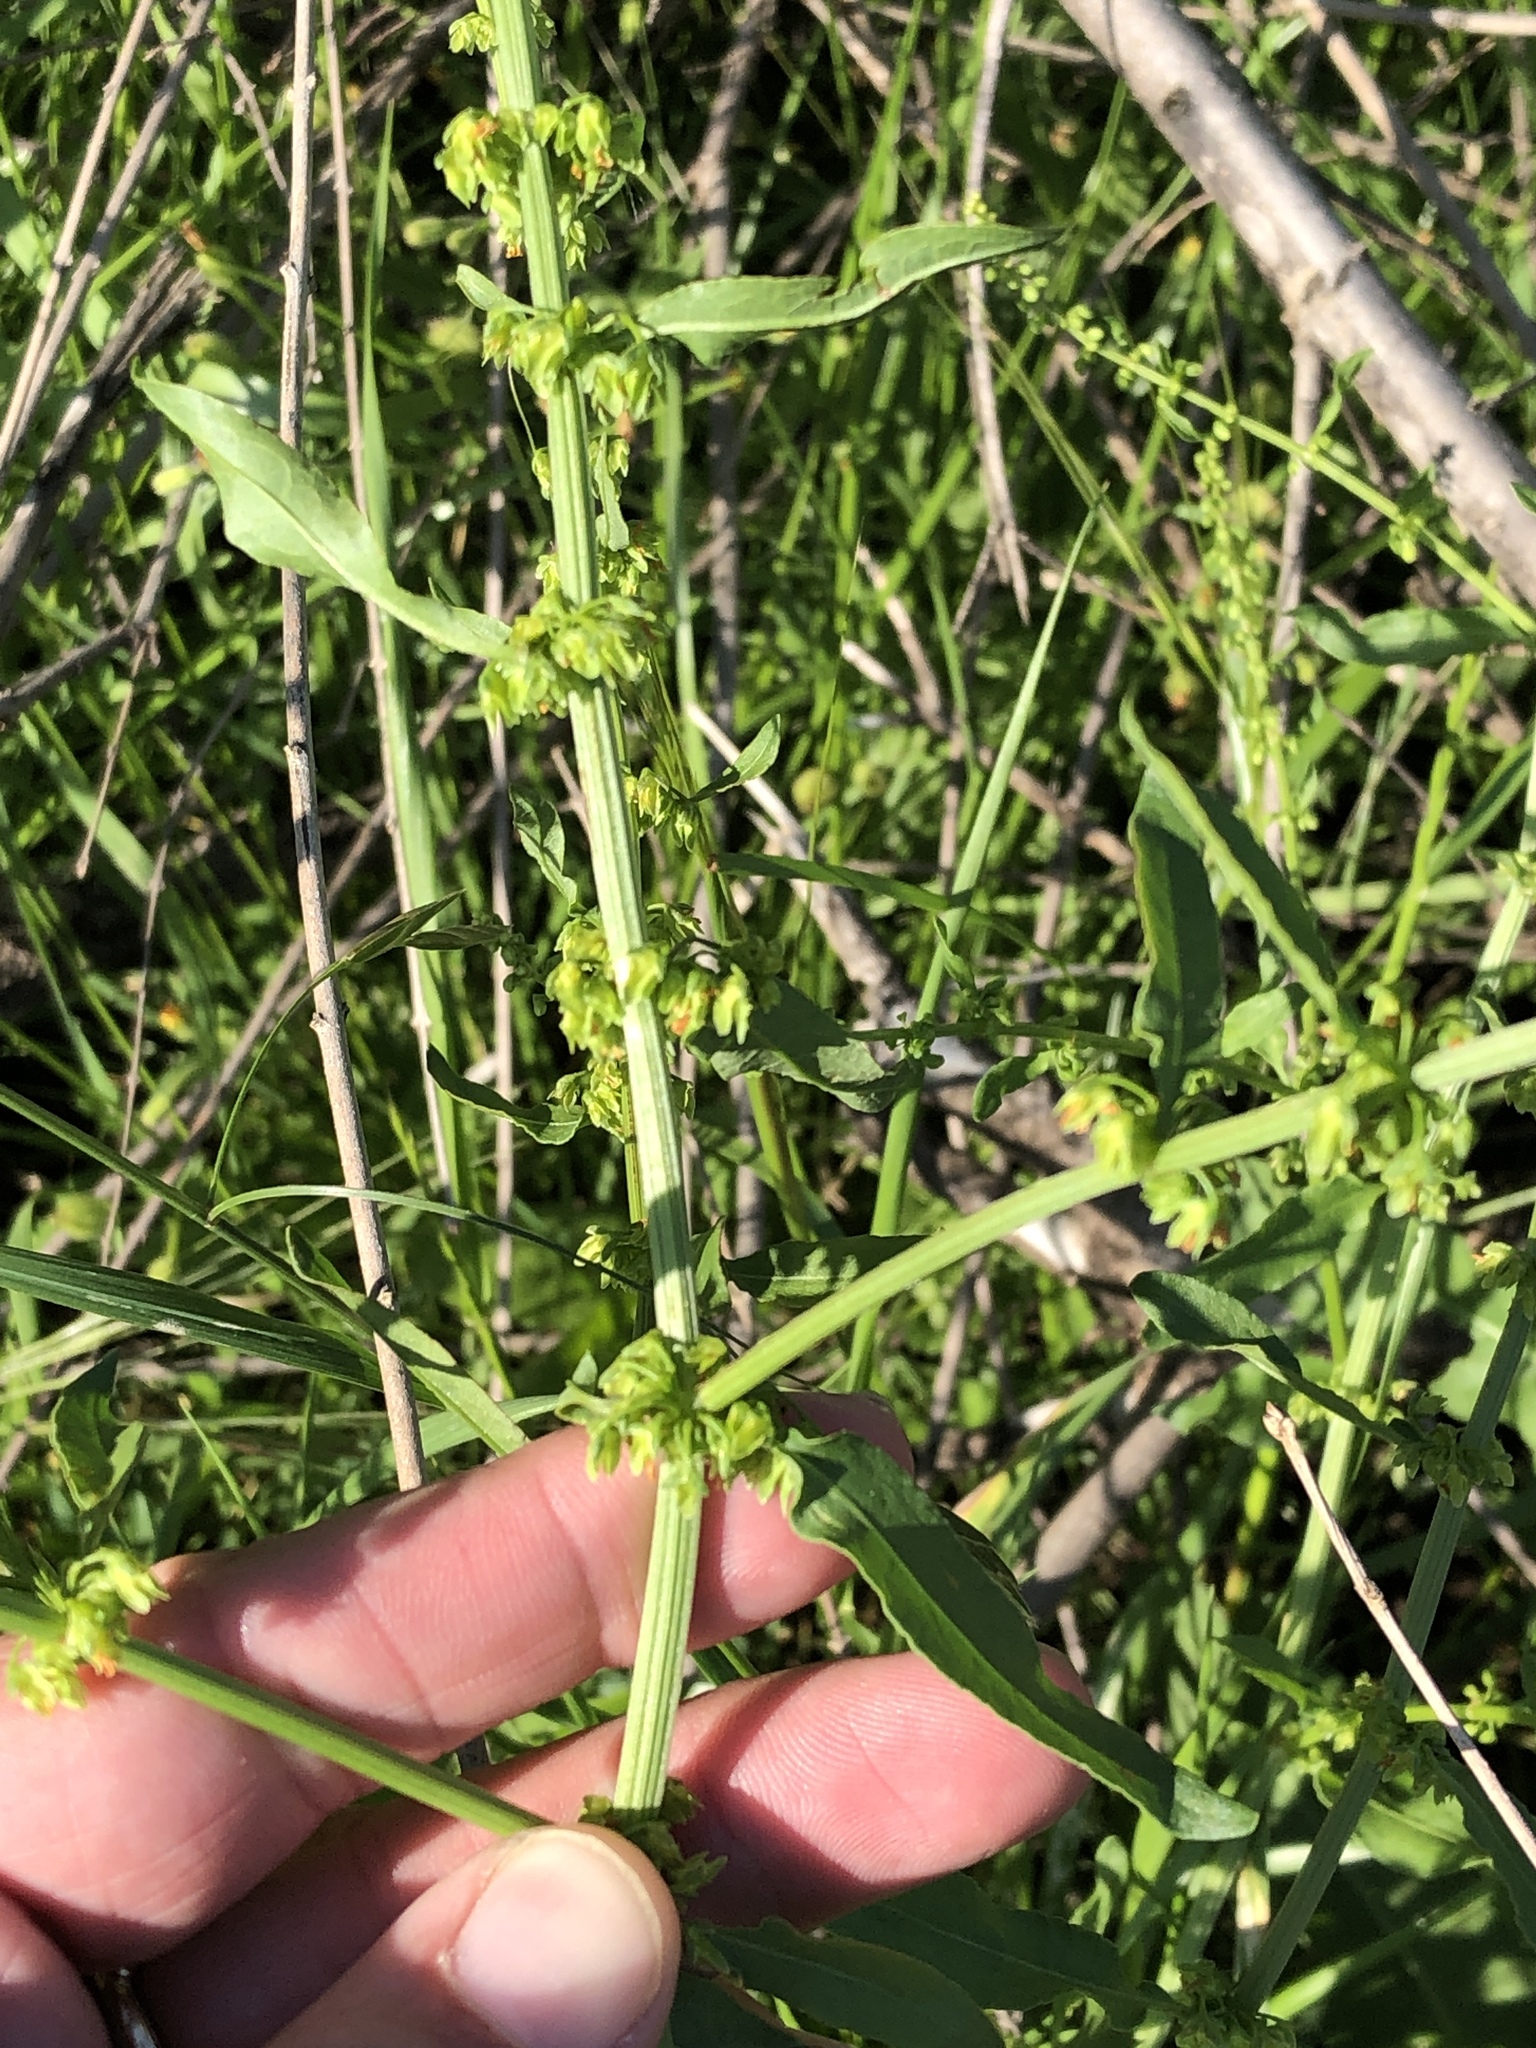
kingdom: Plantae
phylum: Tracheophyta
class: Magnoliopsida
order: Caryophyllales
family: Polygonaceae
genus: Rumex
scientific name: Rumex pulcher
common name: Fiddle dock
